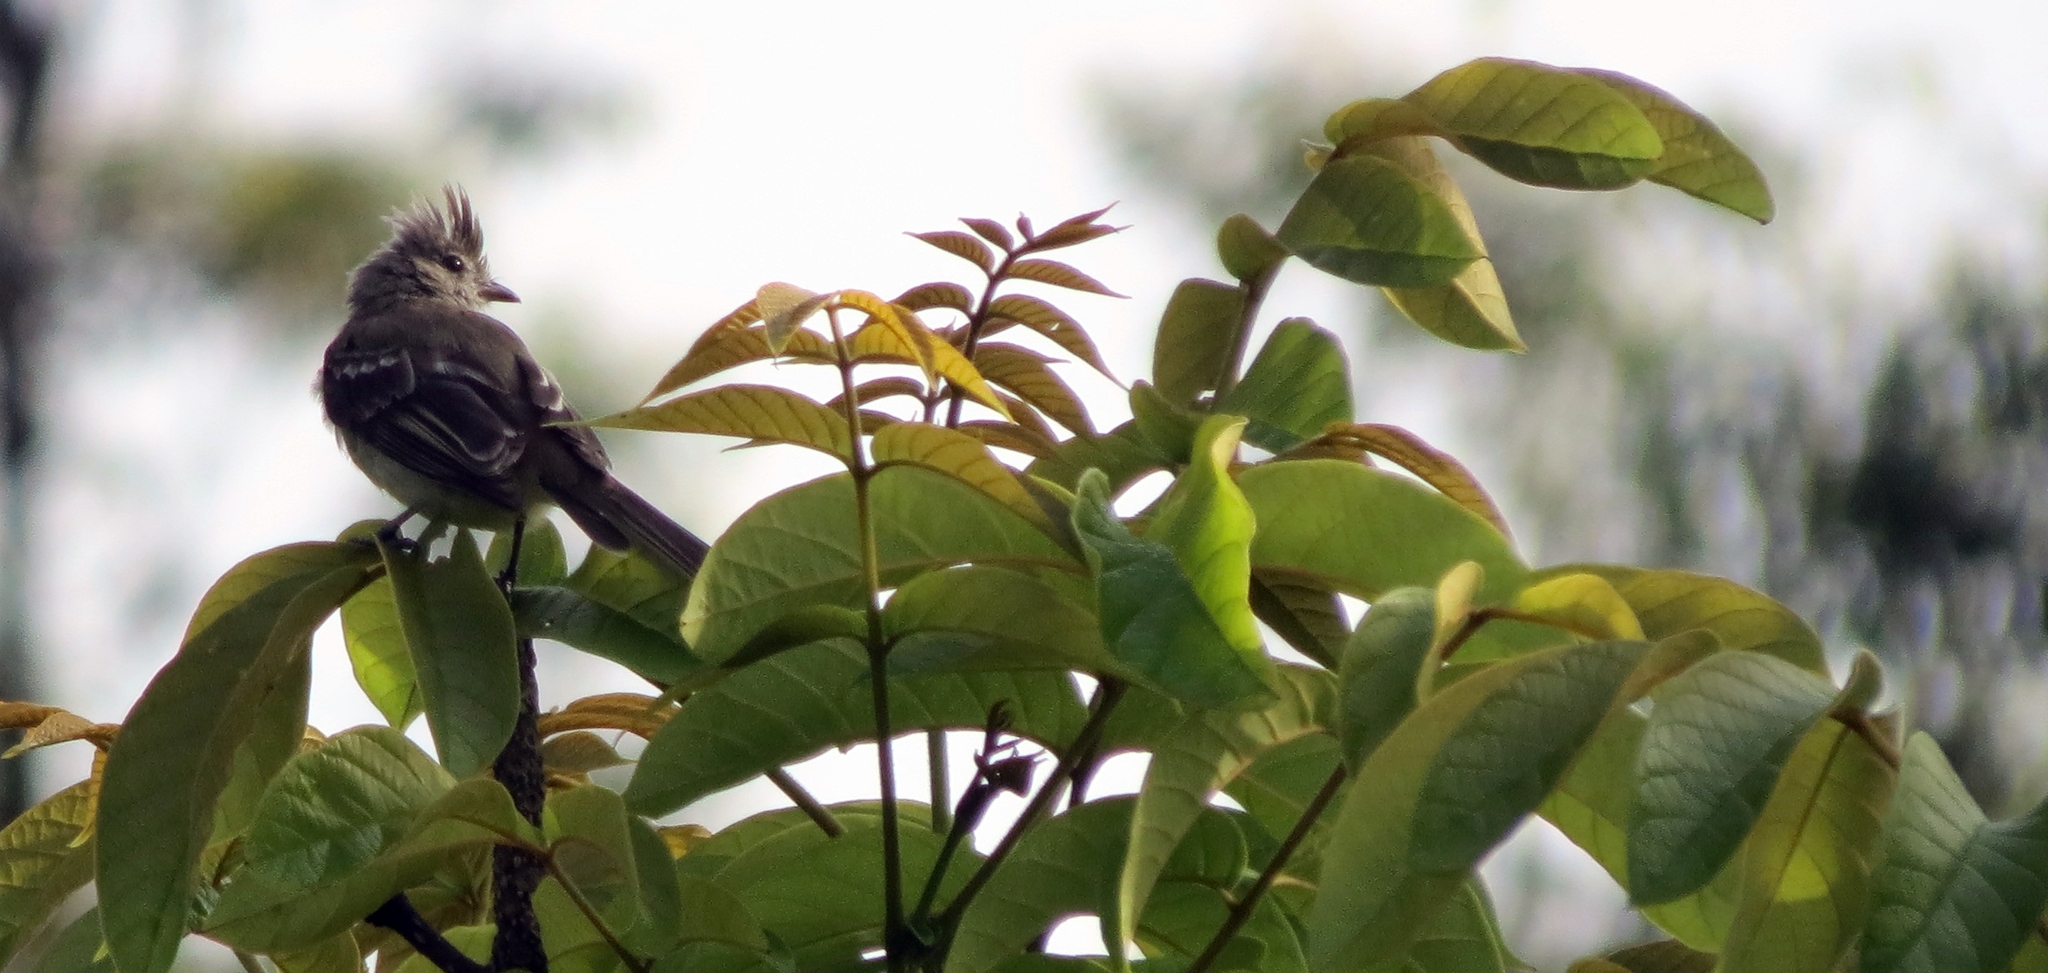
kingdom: Animalia
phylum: Chordata
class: Aves
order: Passeriformes
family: Tyrannidae
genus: Elaenia
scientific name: Elaenia flavogaster
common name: Yellow-bellied elaenia
